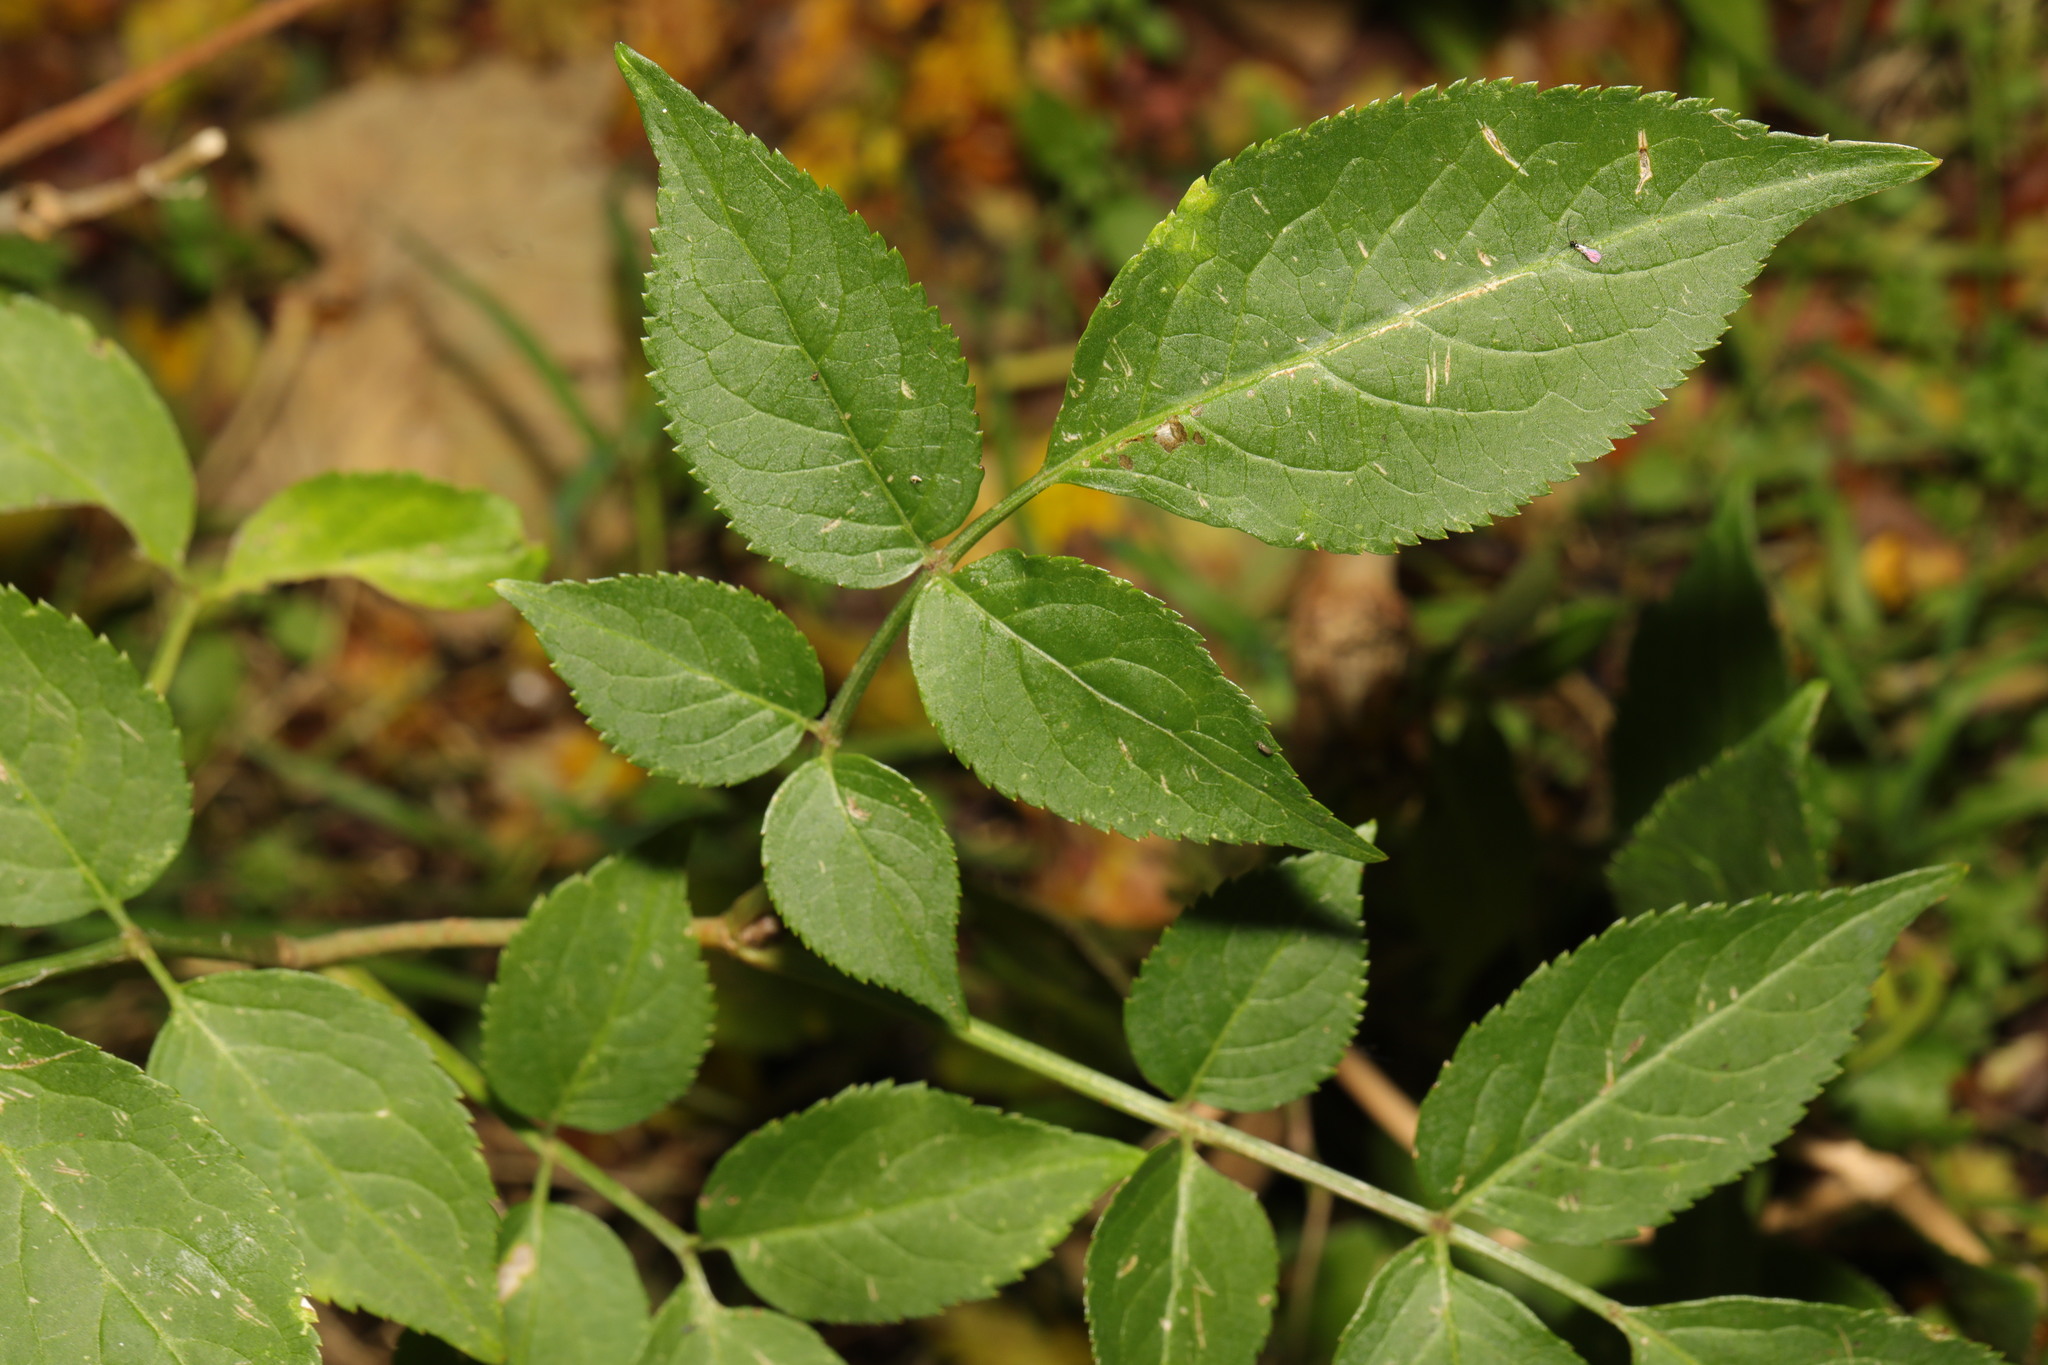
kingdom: Plantae
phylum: Tracheophyta
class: Magnoliopsida
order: Dipsacales
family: Viburnaceae
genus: Sambucus
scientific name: Sambucus nigra
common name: Elder
